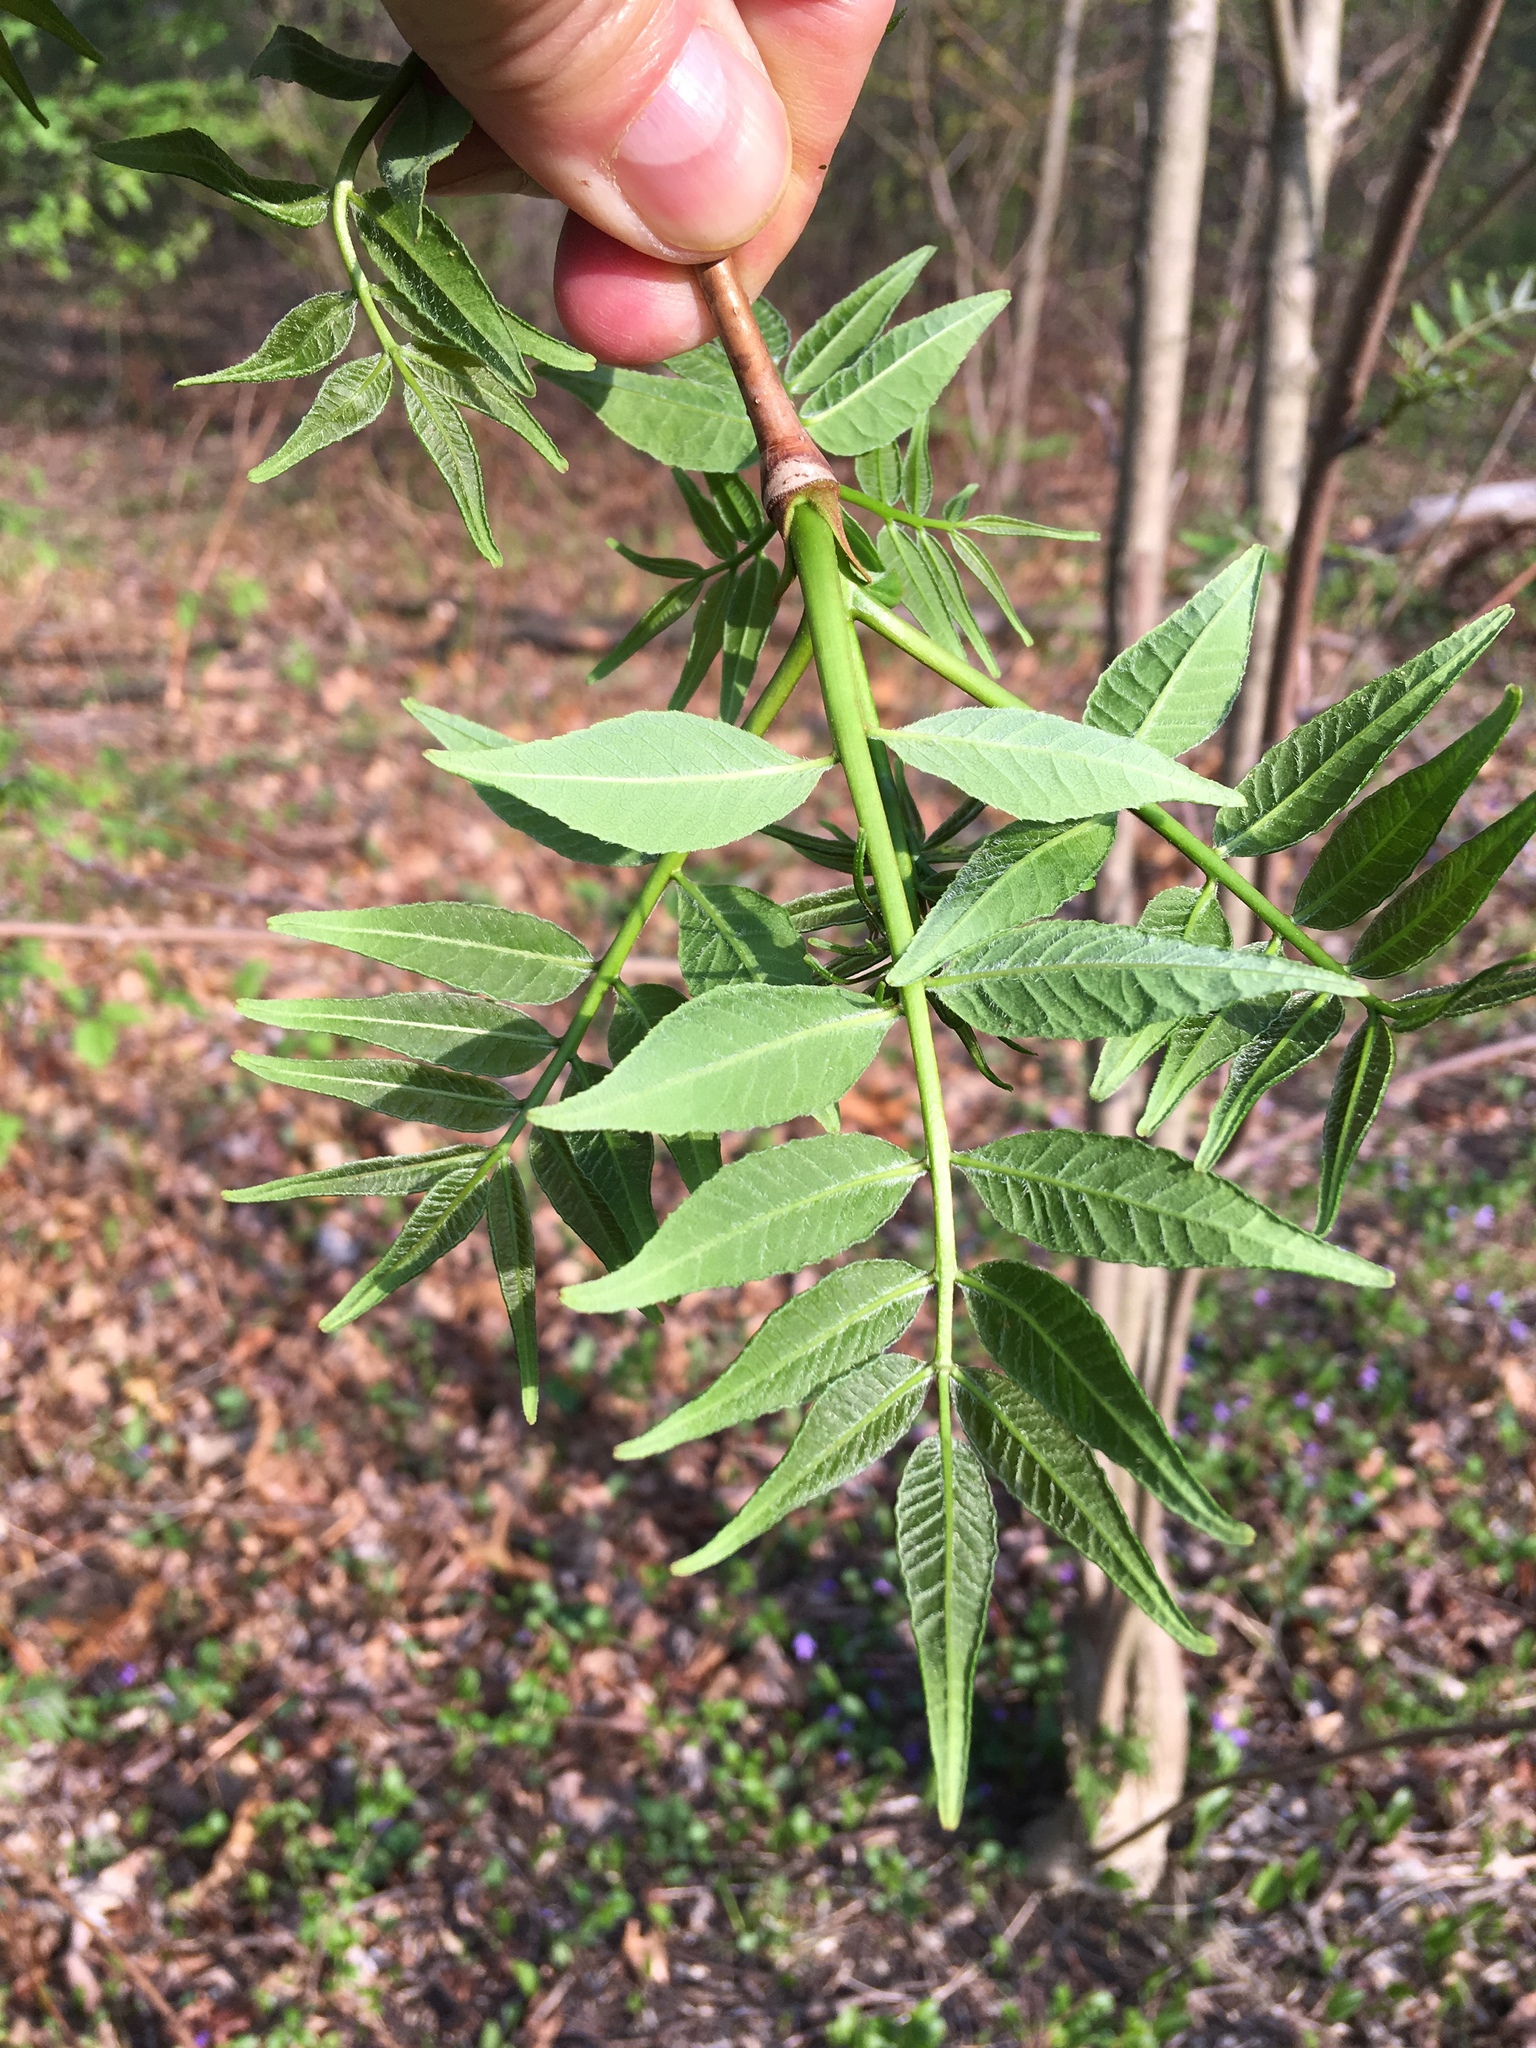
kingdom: Plantae
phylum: Tracheophyta
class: Magnoliopsida
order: Sapindales
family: Rutaceae
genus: Phellodendron
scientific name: Phellodendron amurense
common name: Amur corktree
